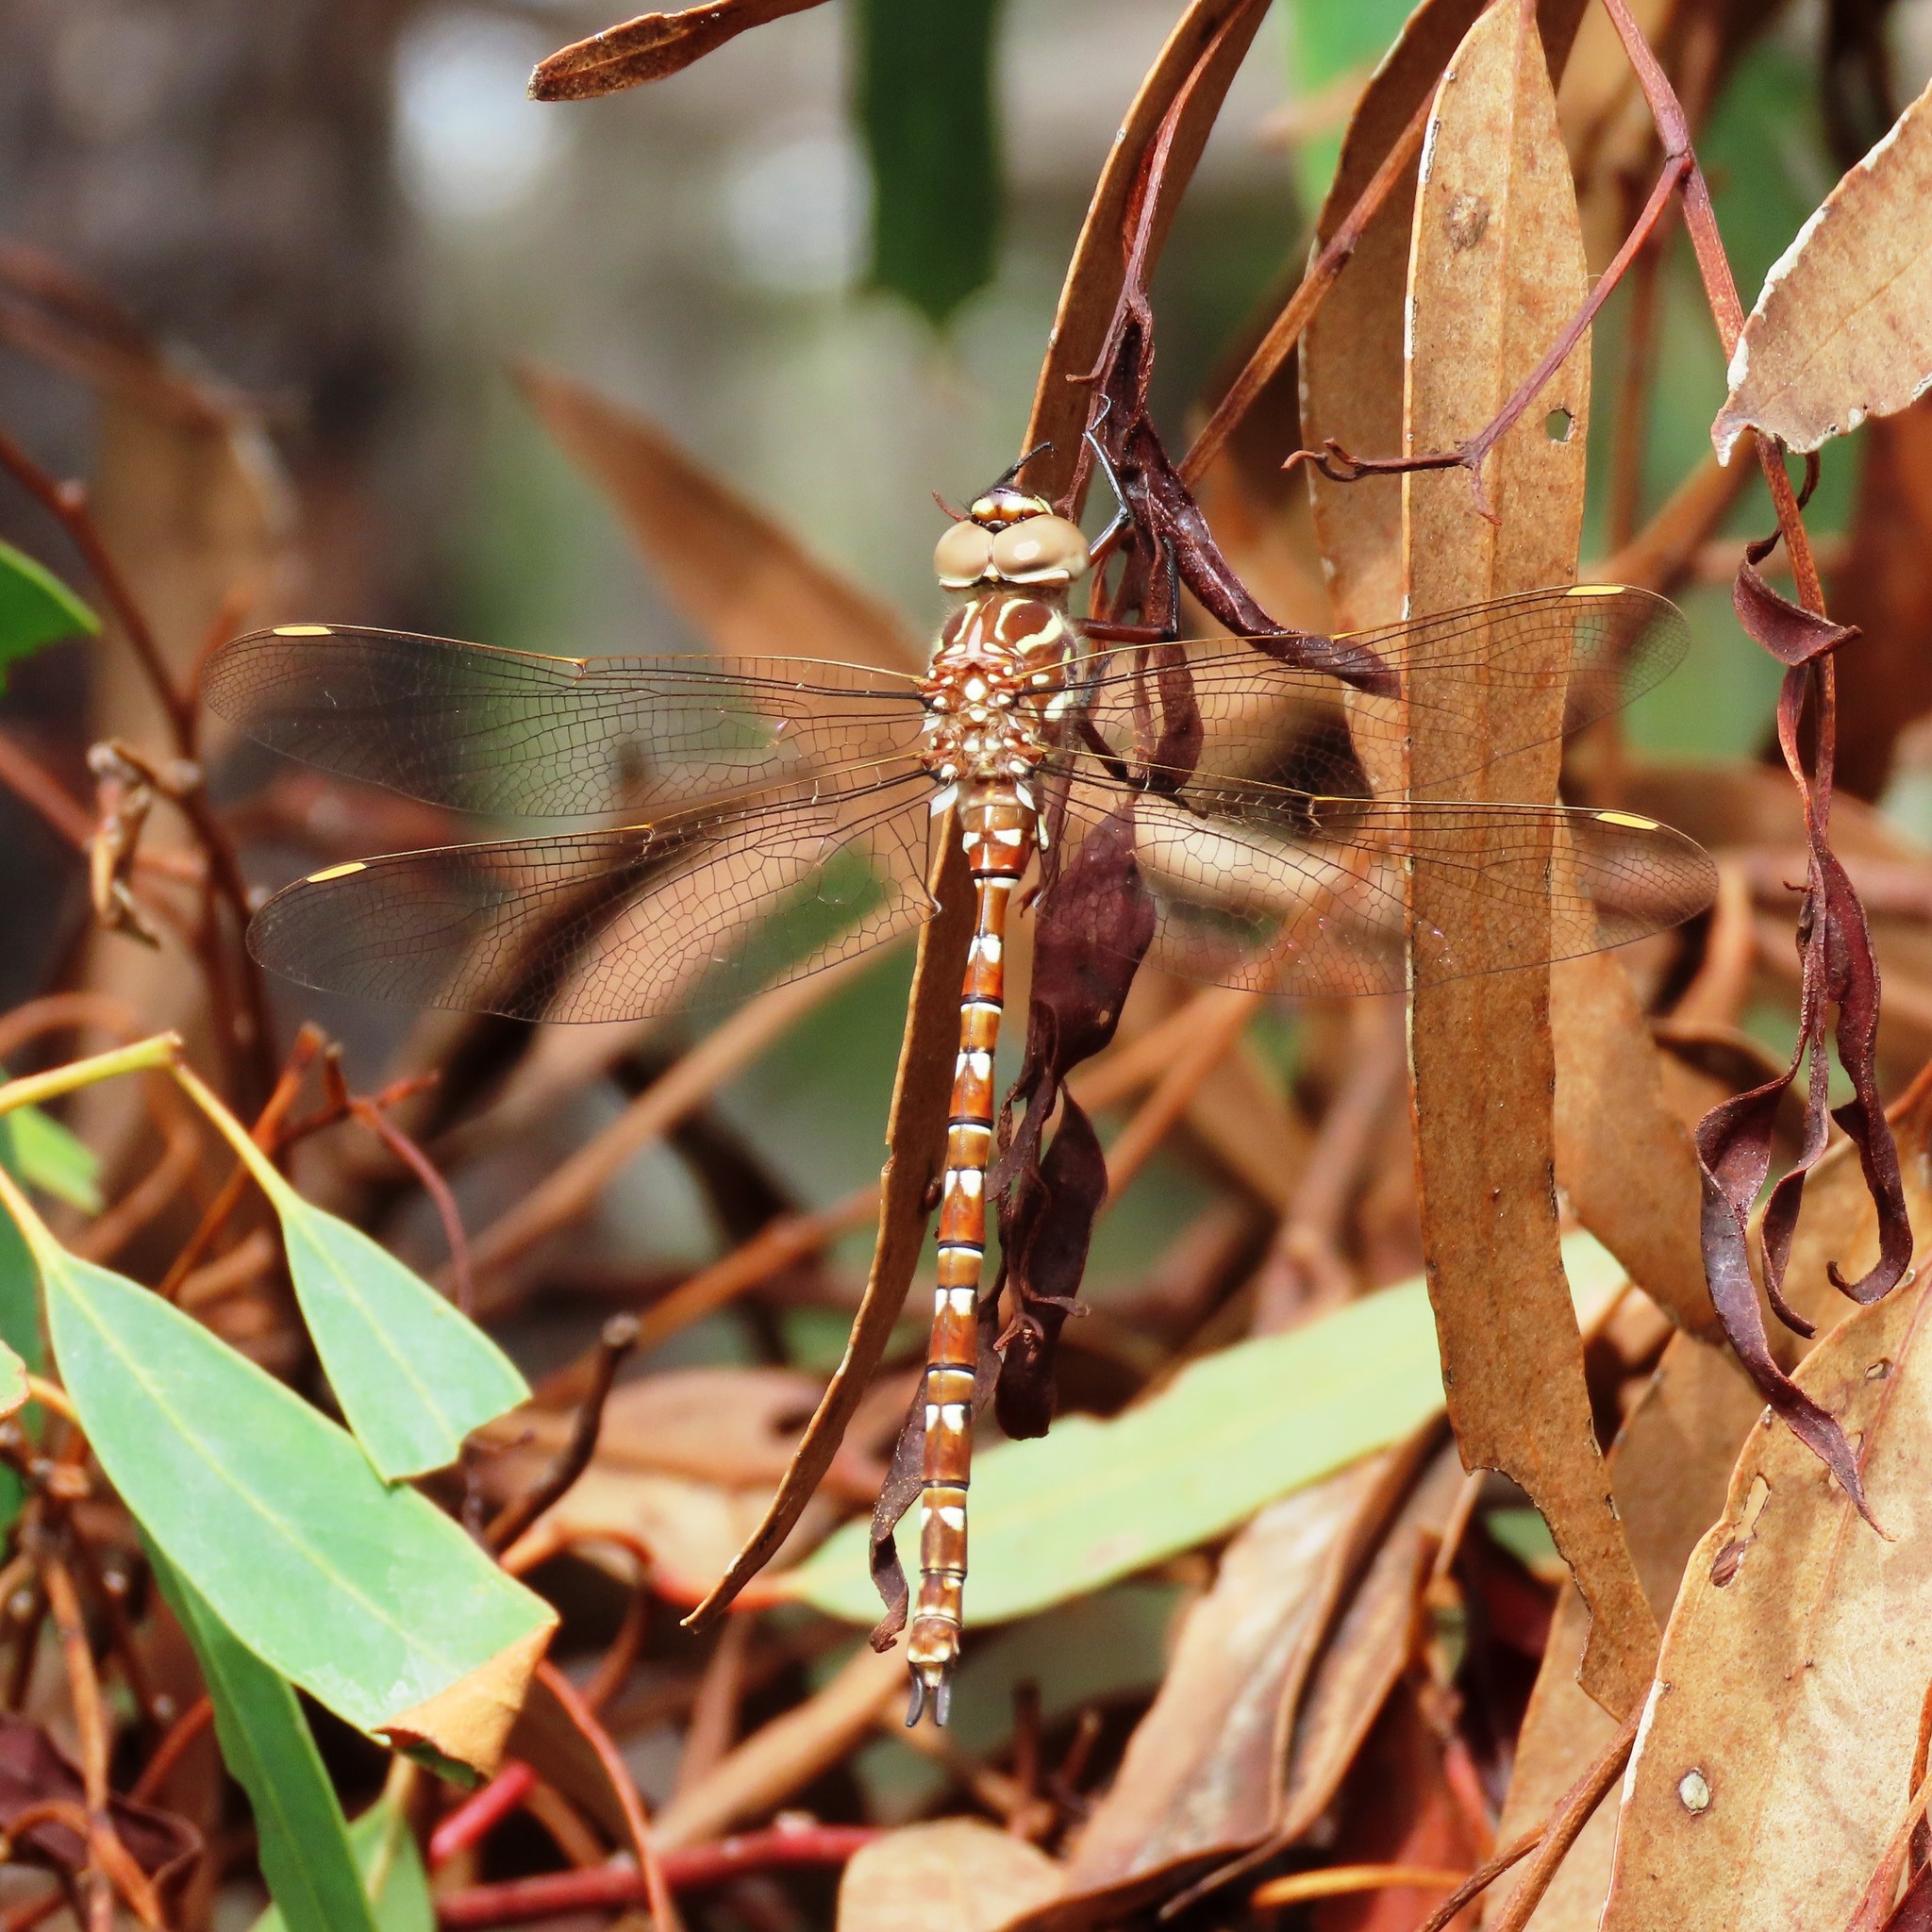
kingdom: Animalia
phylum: Arthropoda
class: Insecta
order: Odonata
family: Aeshnidae
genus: Austroaeschna
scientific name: Austroaeschna unicornis
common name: Unicorn darner
